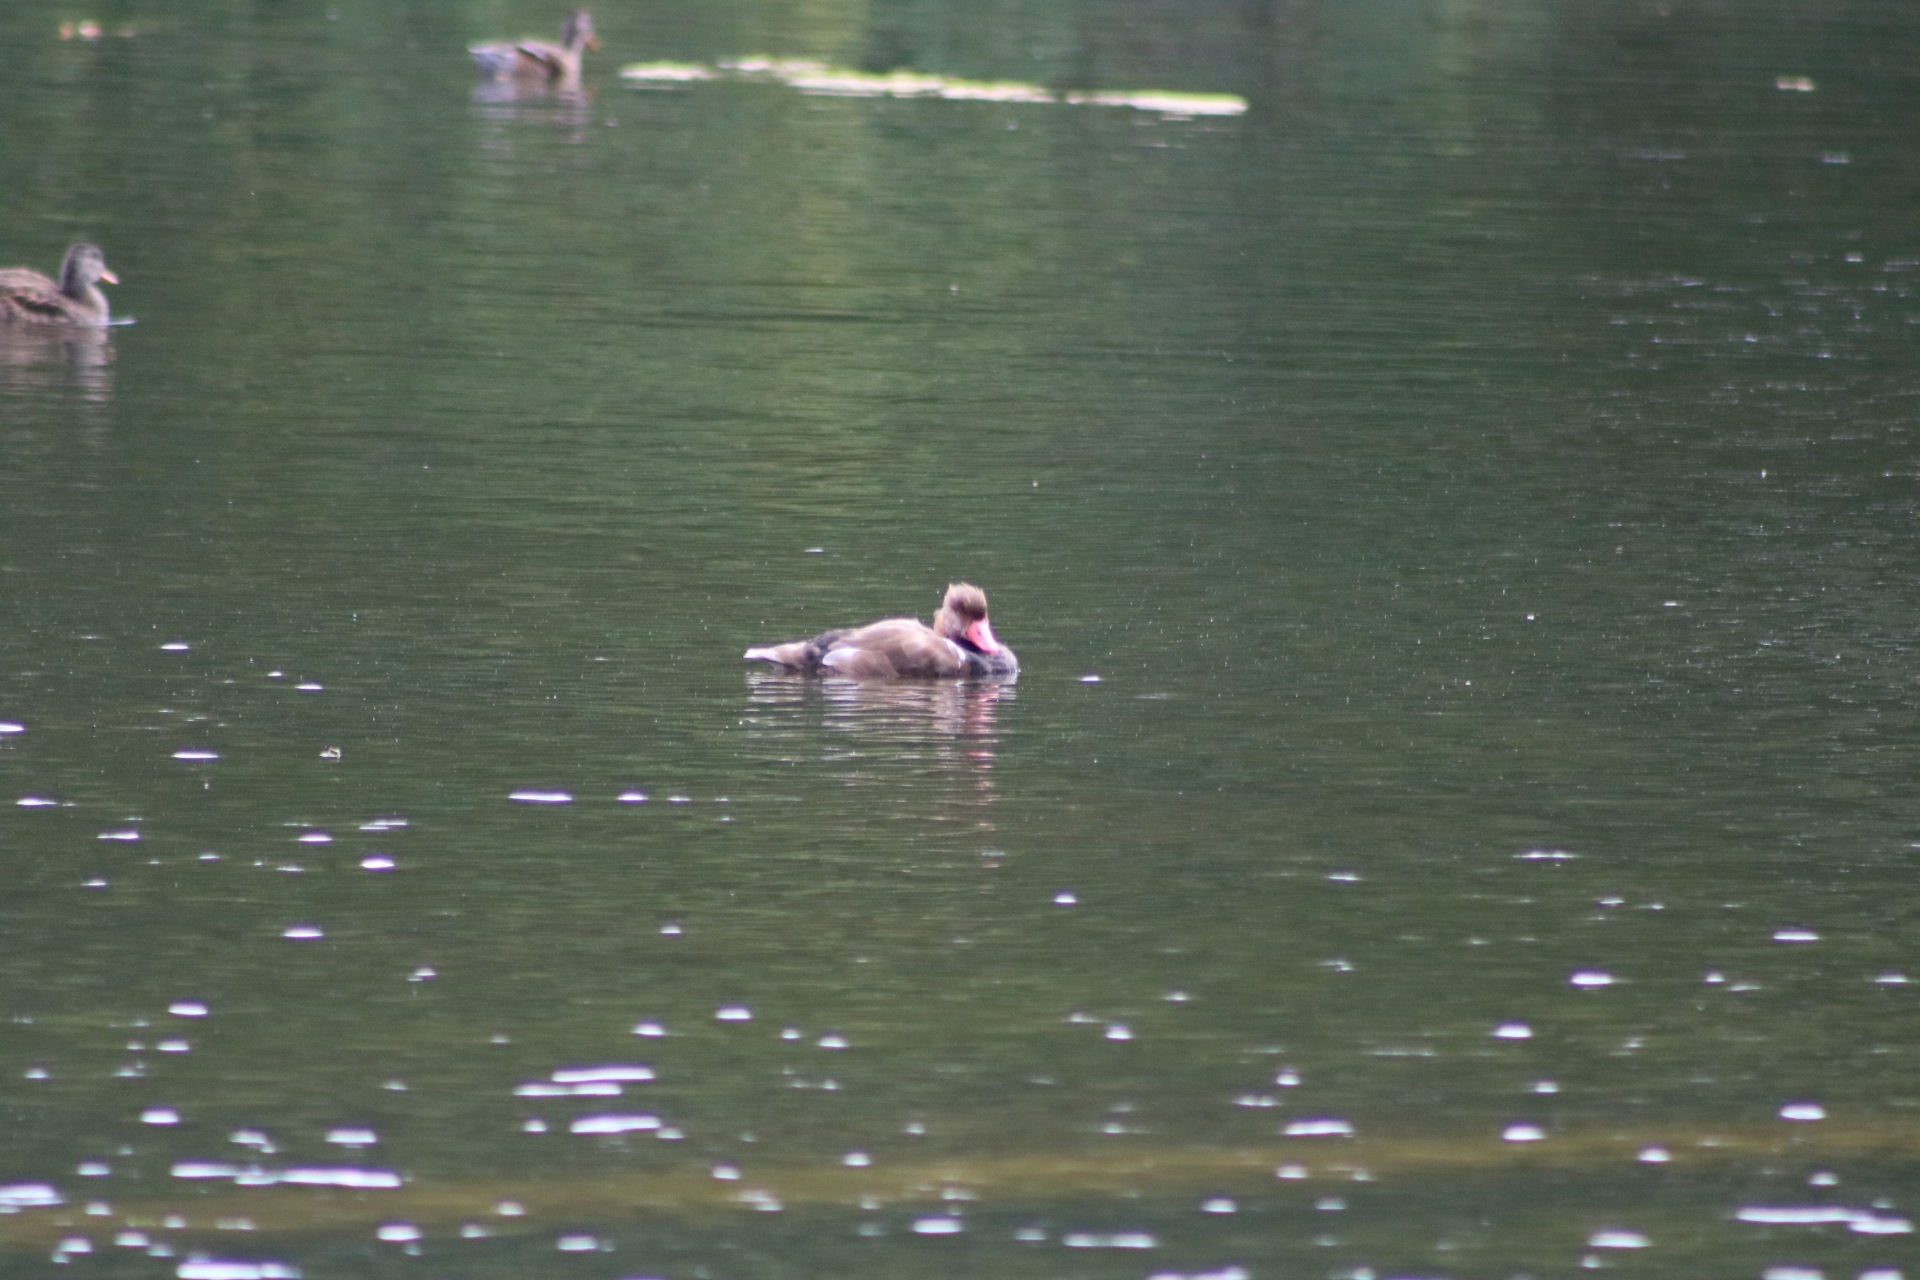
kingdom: Animalia
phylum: Chordata
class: Aves
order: Anseriformes
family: Anatidae
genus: Netta
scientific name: Netta rufina
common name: Red-crested pochard
